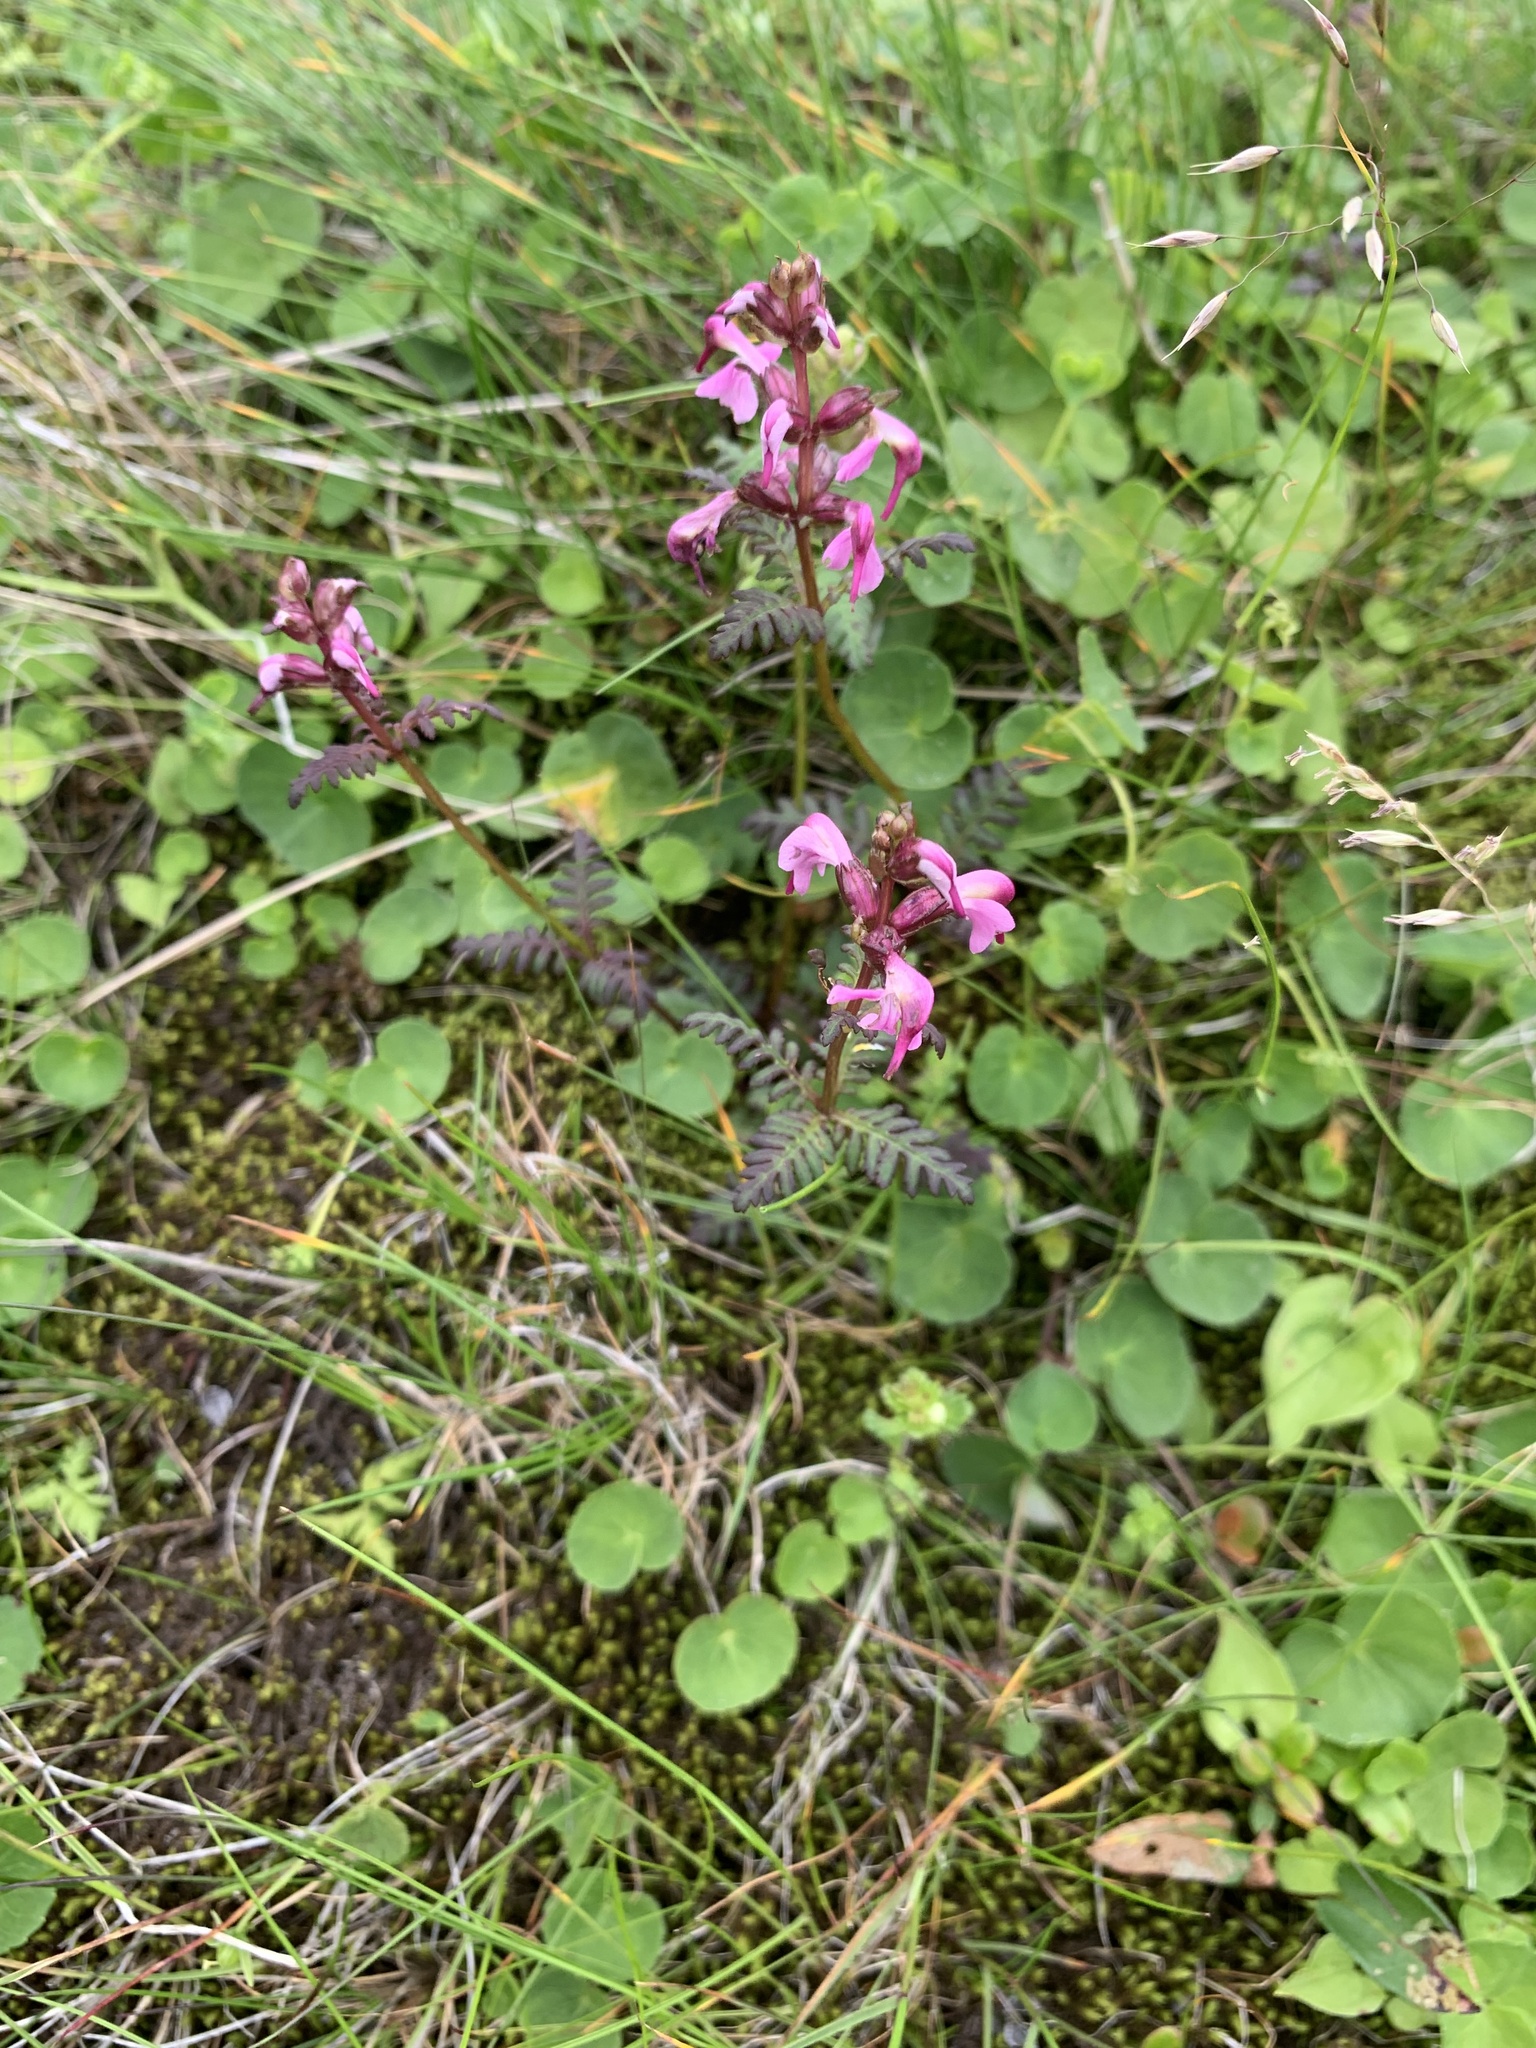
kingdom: Plantae
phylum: Tracheophyta
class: Magnoliopsida
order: Lamiales
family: Orobanchaceae
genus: Pedicularis
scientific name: Pedicularis chamissonis
